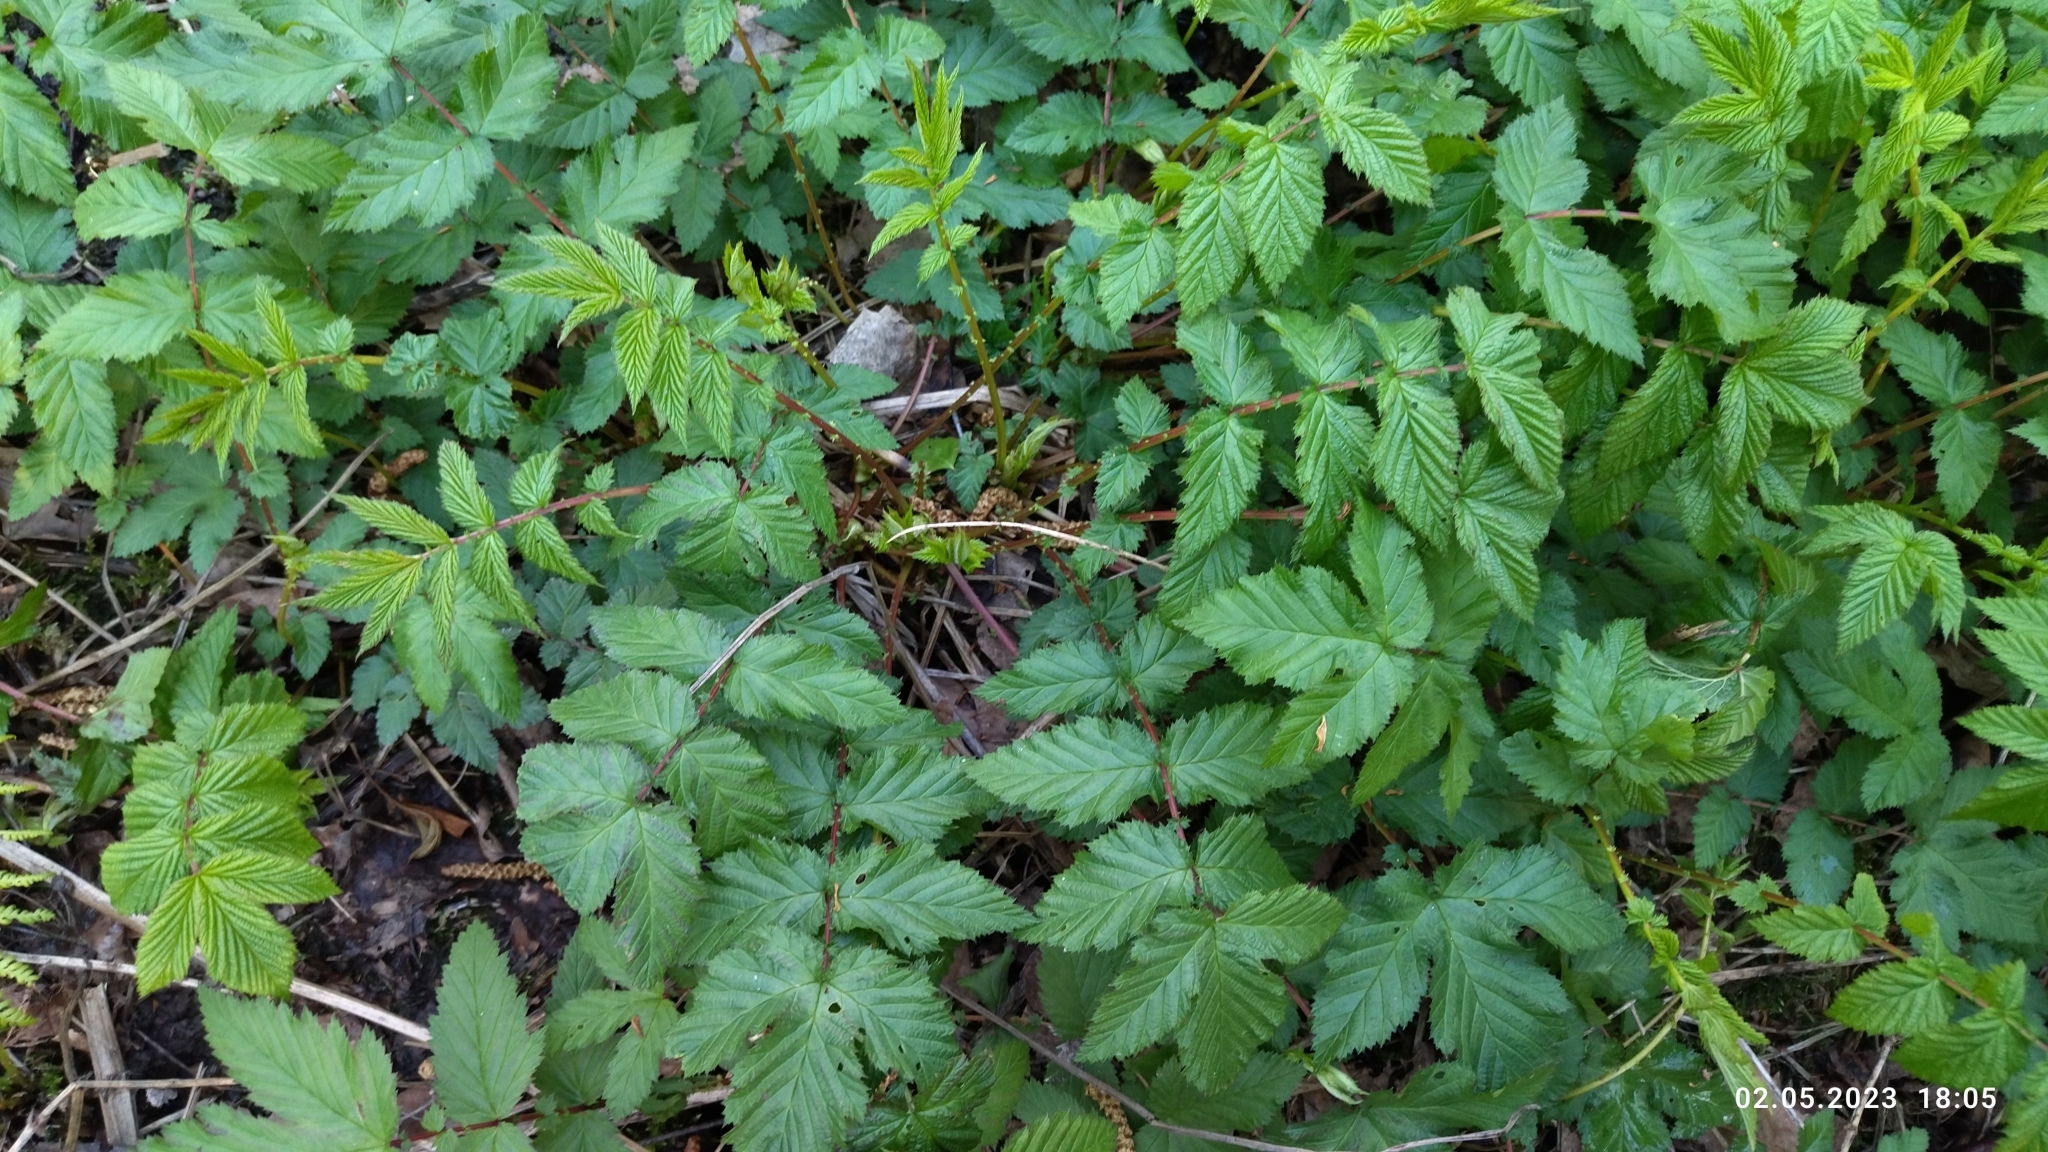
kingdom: Plantae
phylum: Tracheophyta
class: Magnoliopsida
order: Rosales
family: Rosaceae
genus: Filipendula
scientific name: Filipendula ulmaria
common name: Meadowsweet
